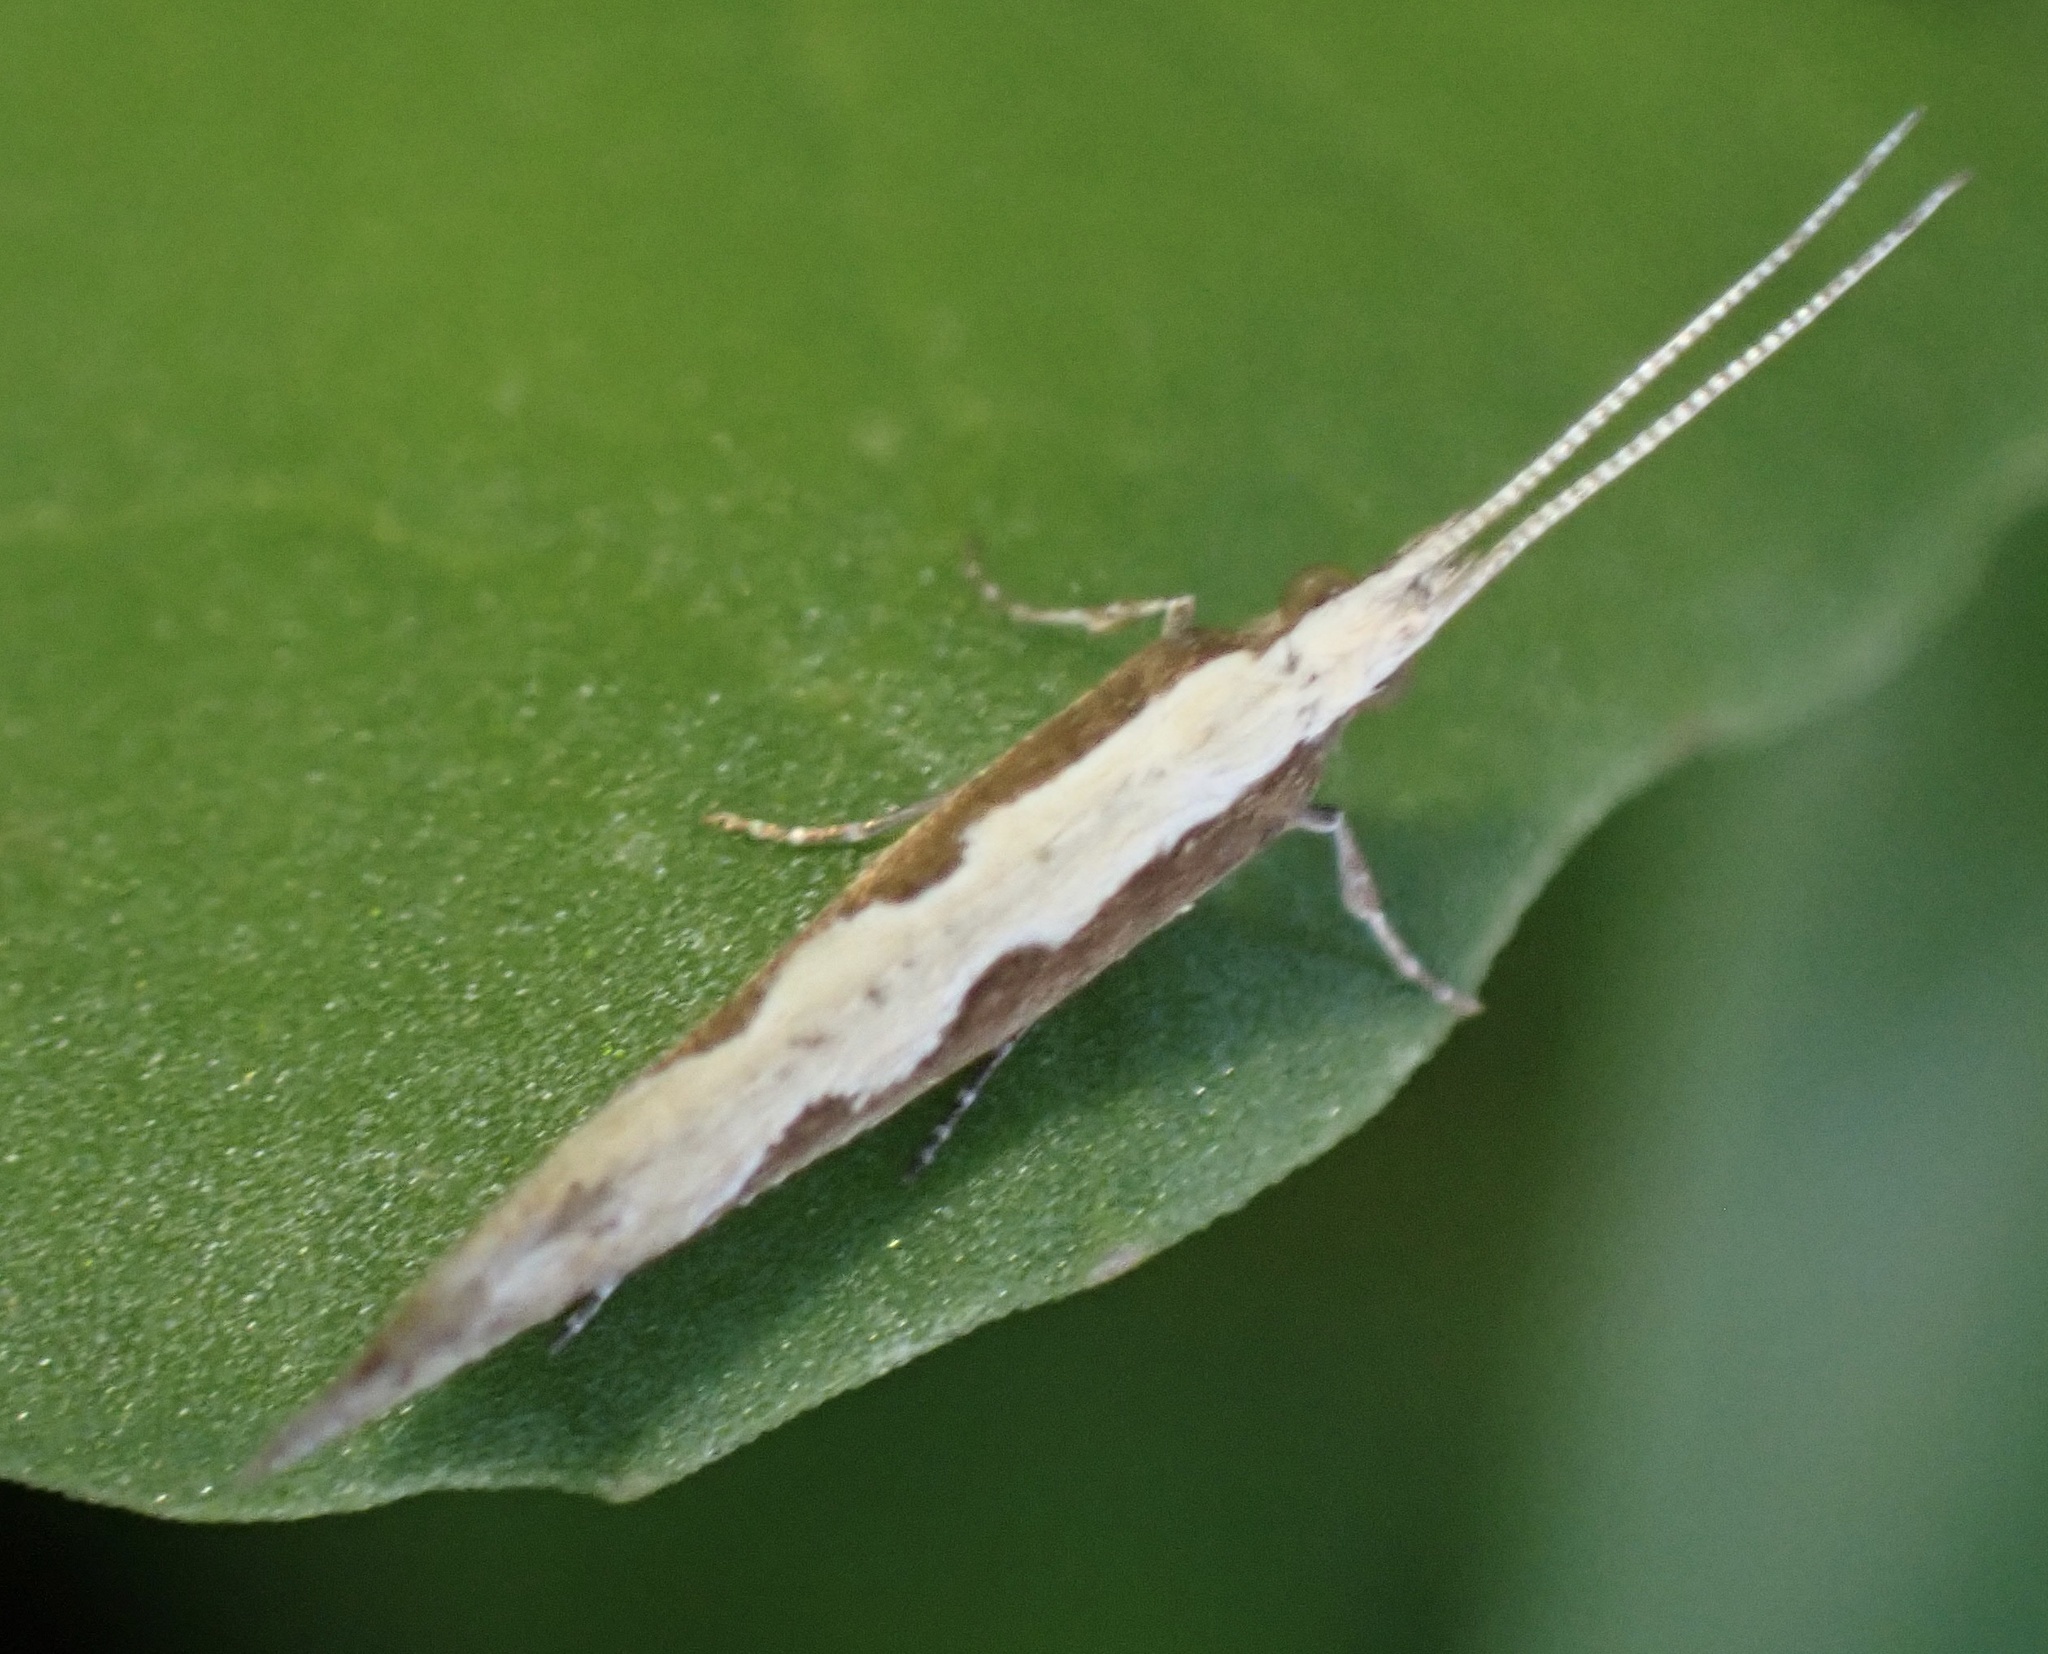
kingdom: Animalia
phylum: Arthropoda
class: Insecta
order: Lepidoptera
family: Plutellidae
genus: Plutella
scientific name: Plutella xylostella
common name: Diamond-back moth
